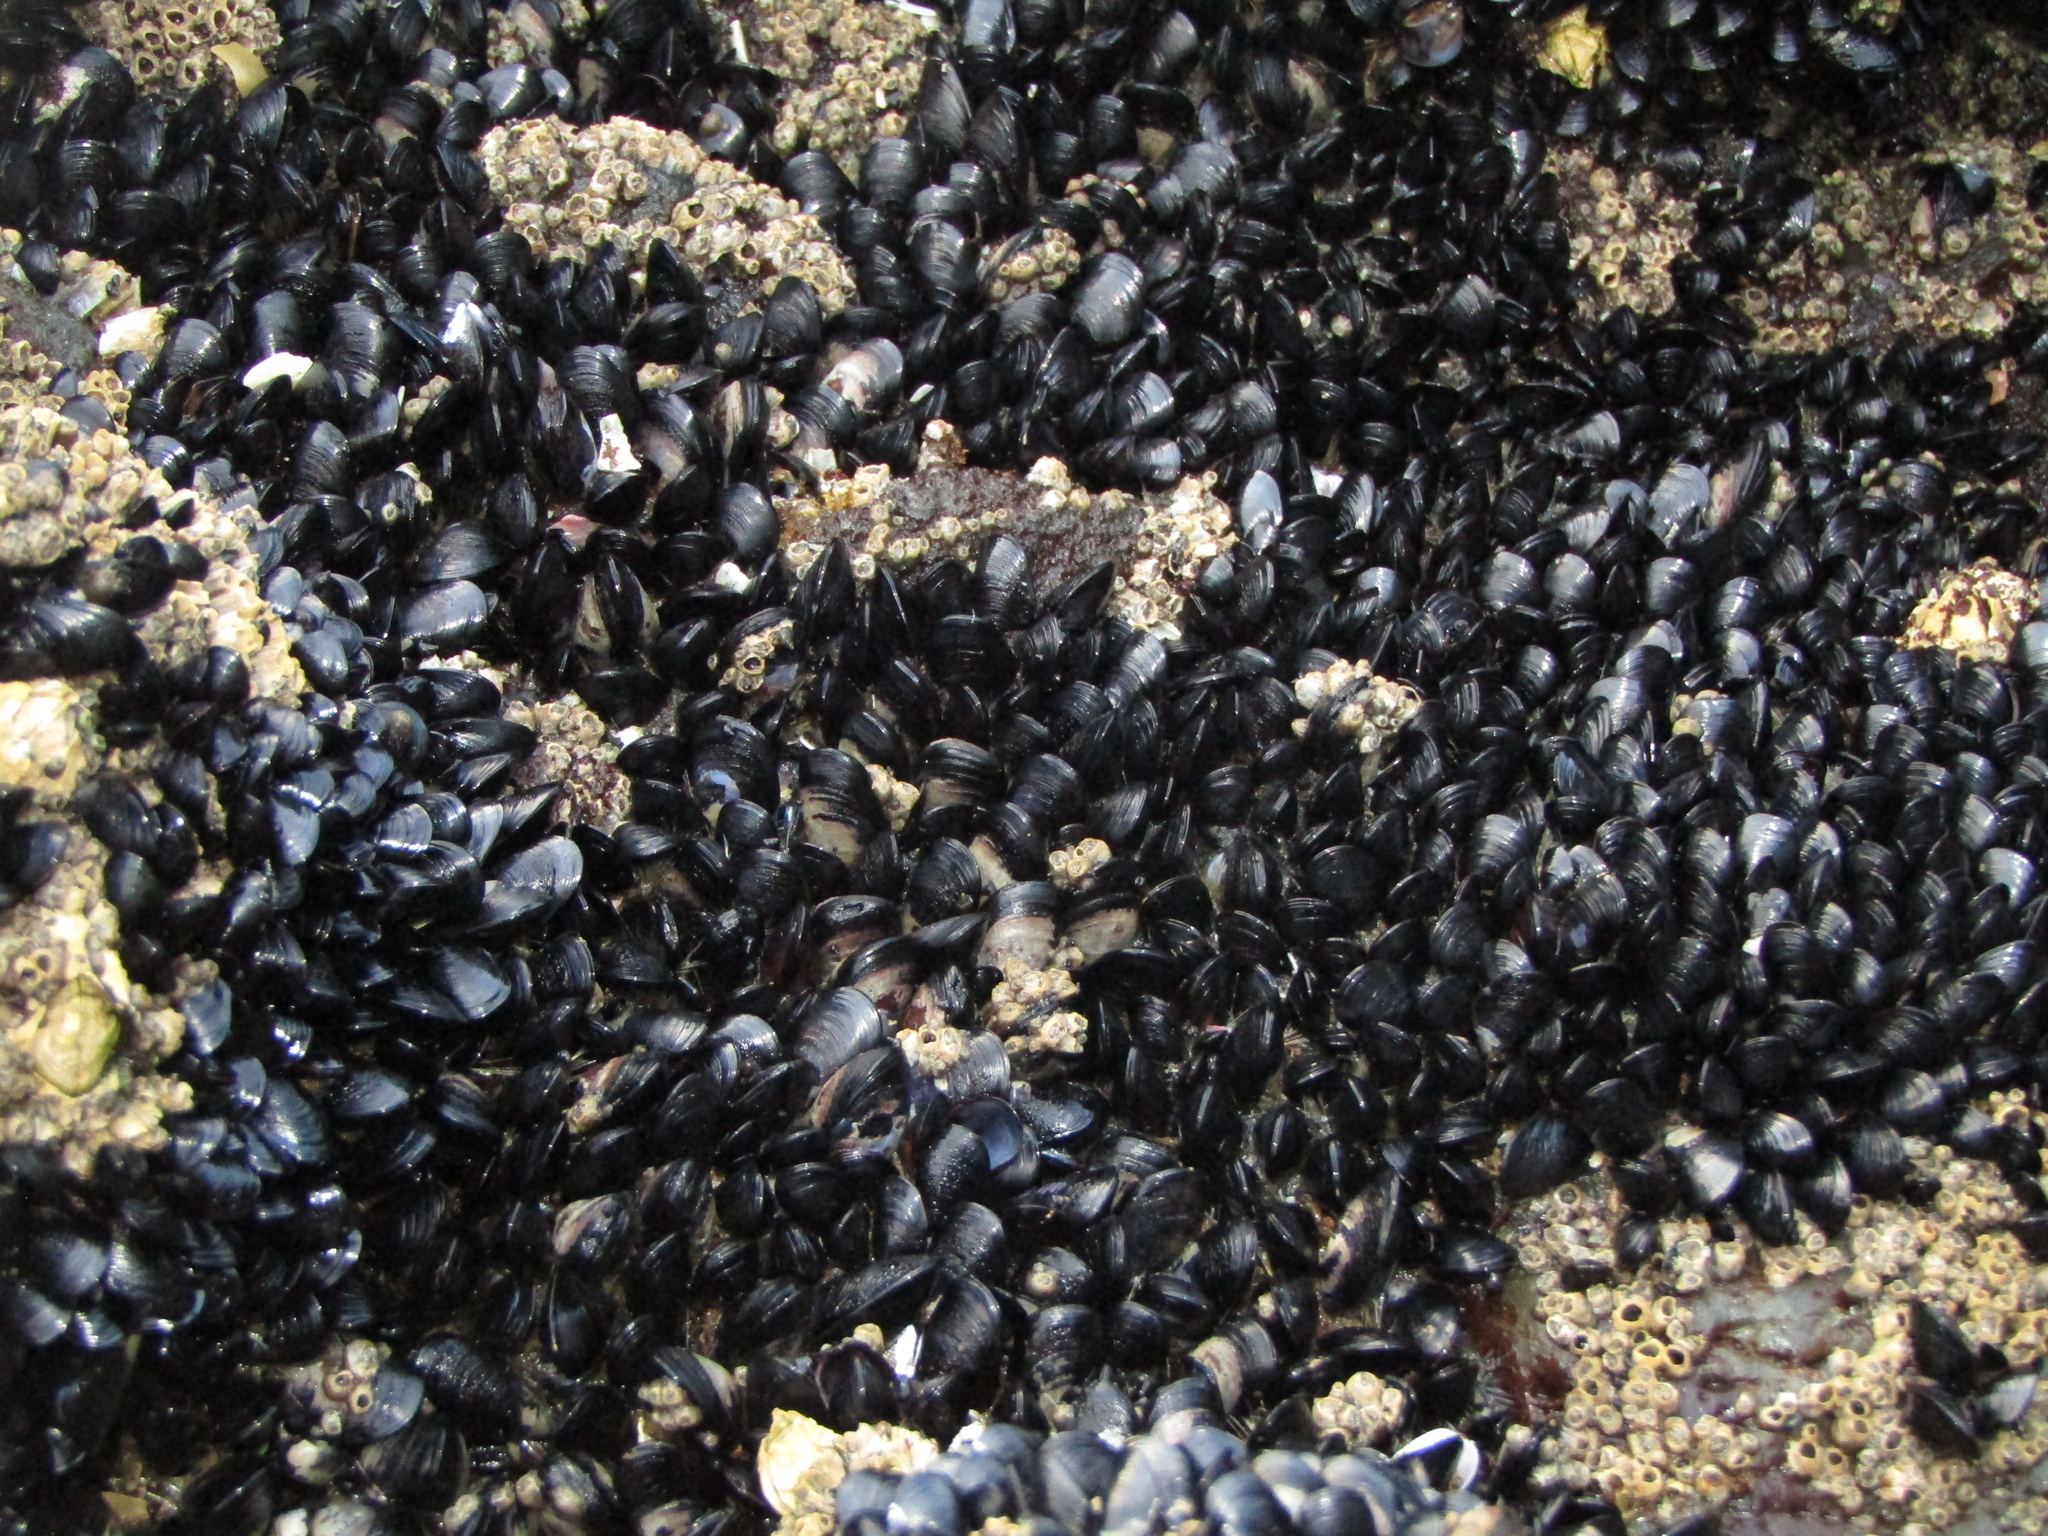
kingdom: Animalia
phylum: Mollusca
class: Bivalvia
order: Mytilida
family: Mytilidae
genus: Xenostrobus
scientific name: Xenostrobus neozelanicus
